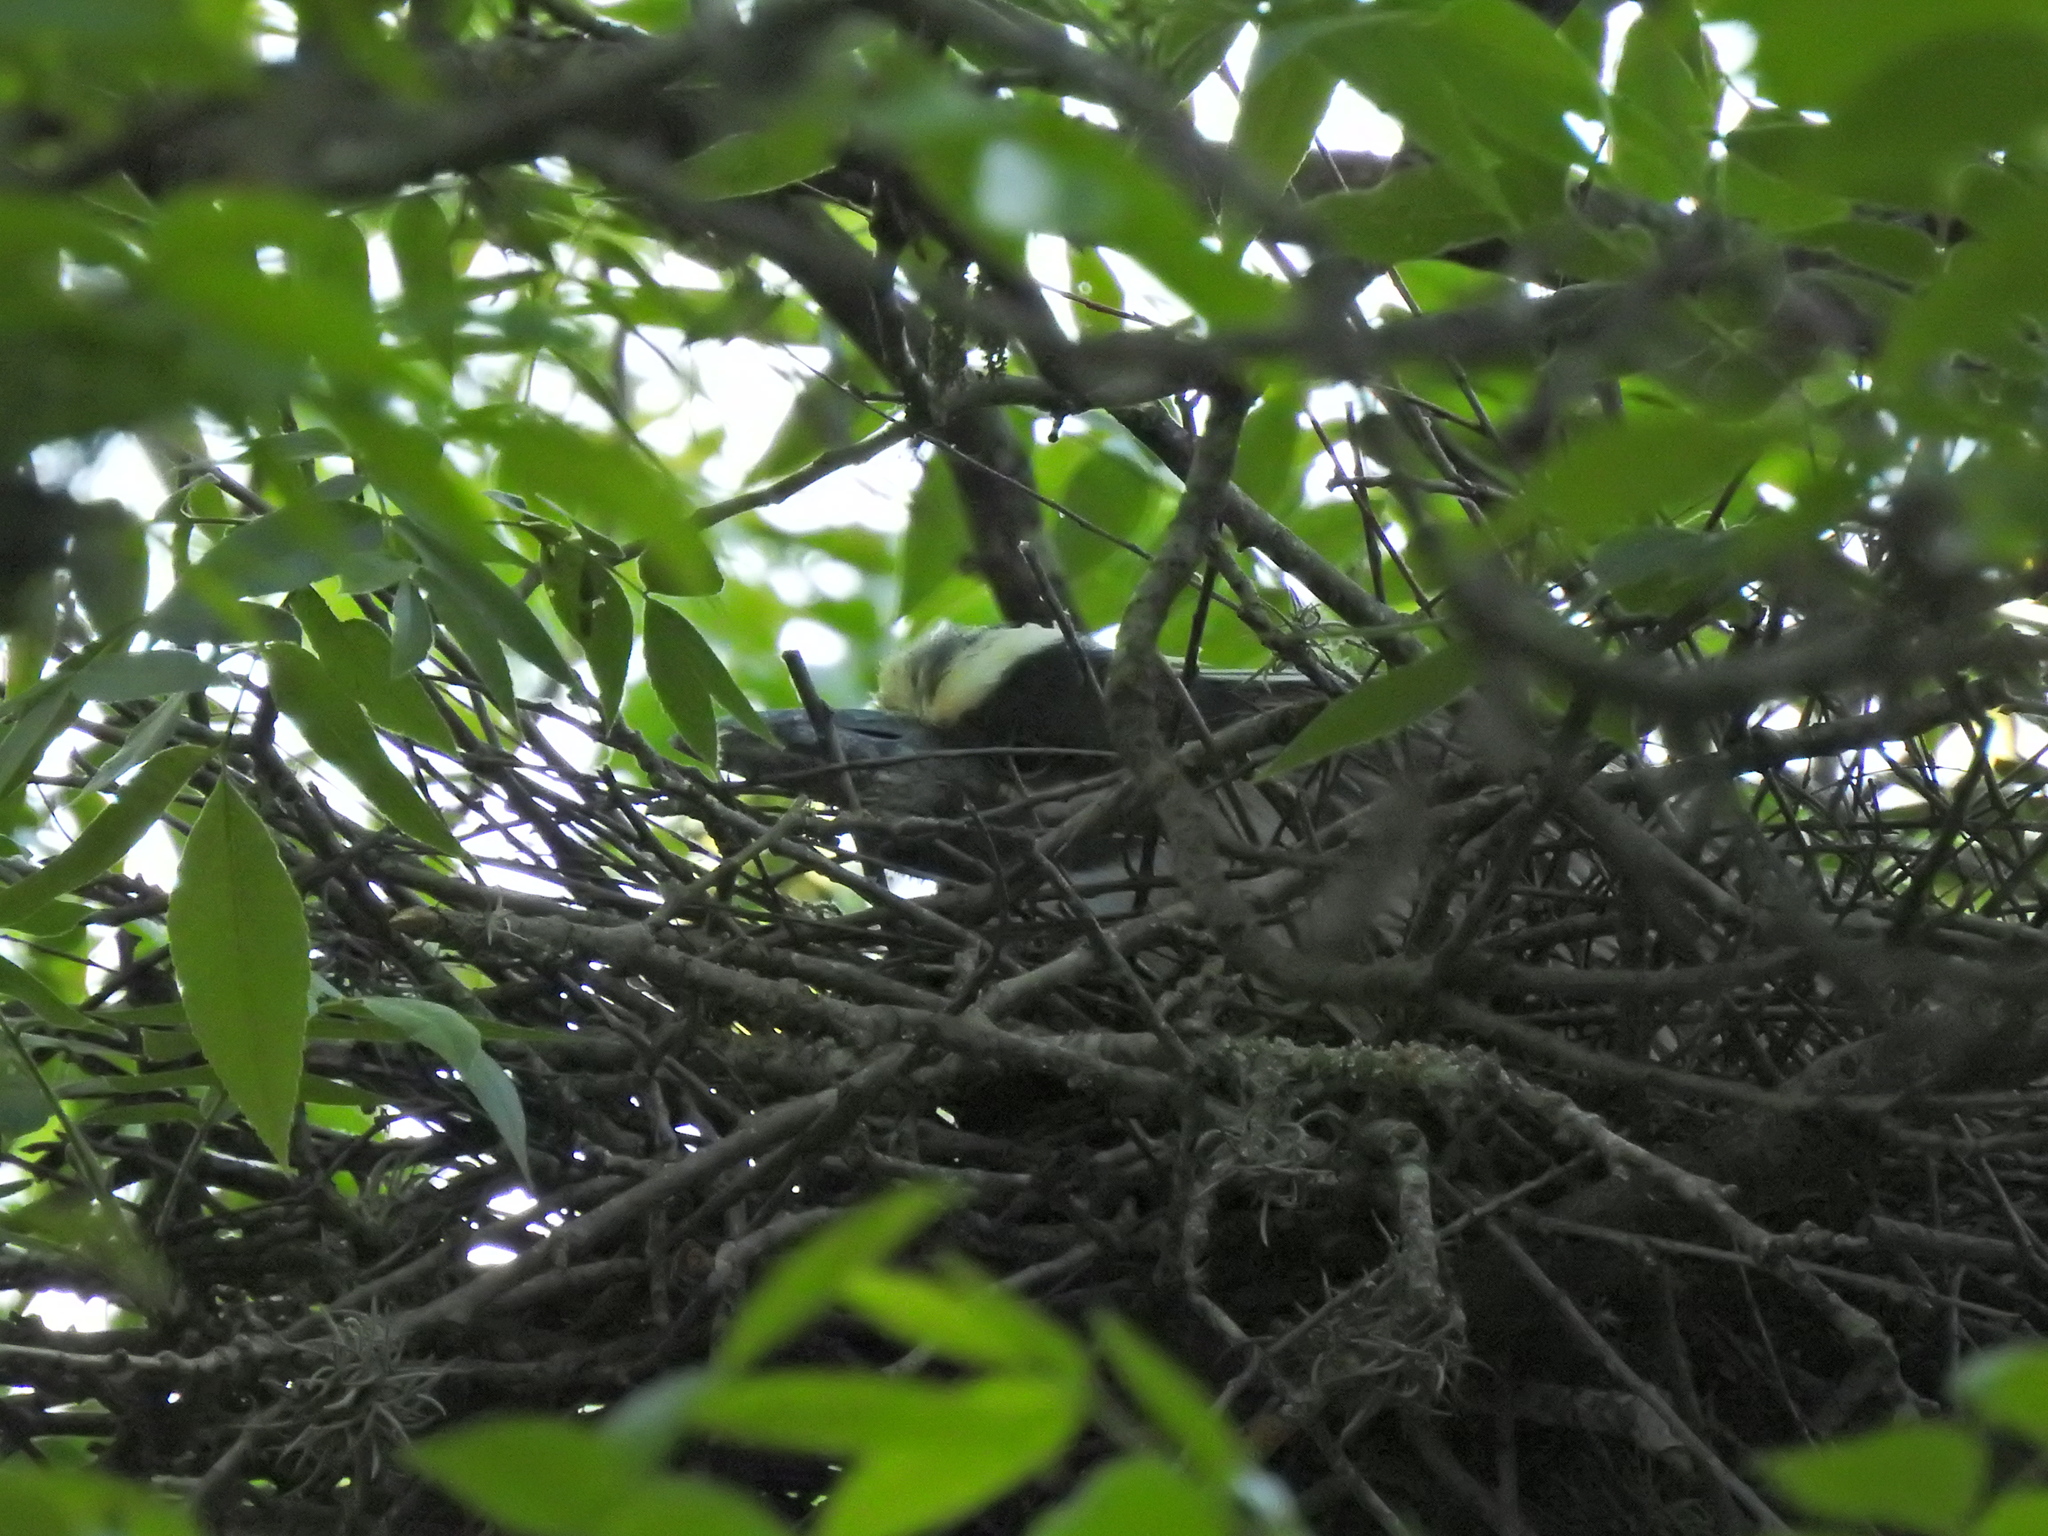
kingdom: Animalia
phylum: Chordata
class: Aves
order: Pelecaniformes
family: Ardeidae
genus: Nyctanassa
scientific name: Nyctanassa violacea
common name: Yellow-crowned night heron
